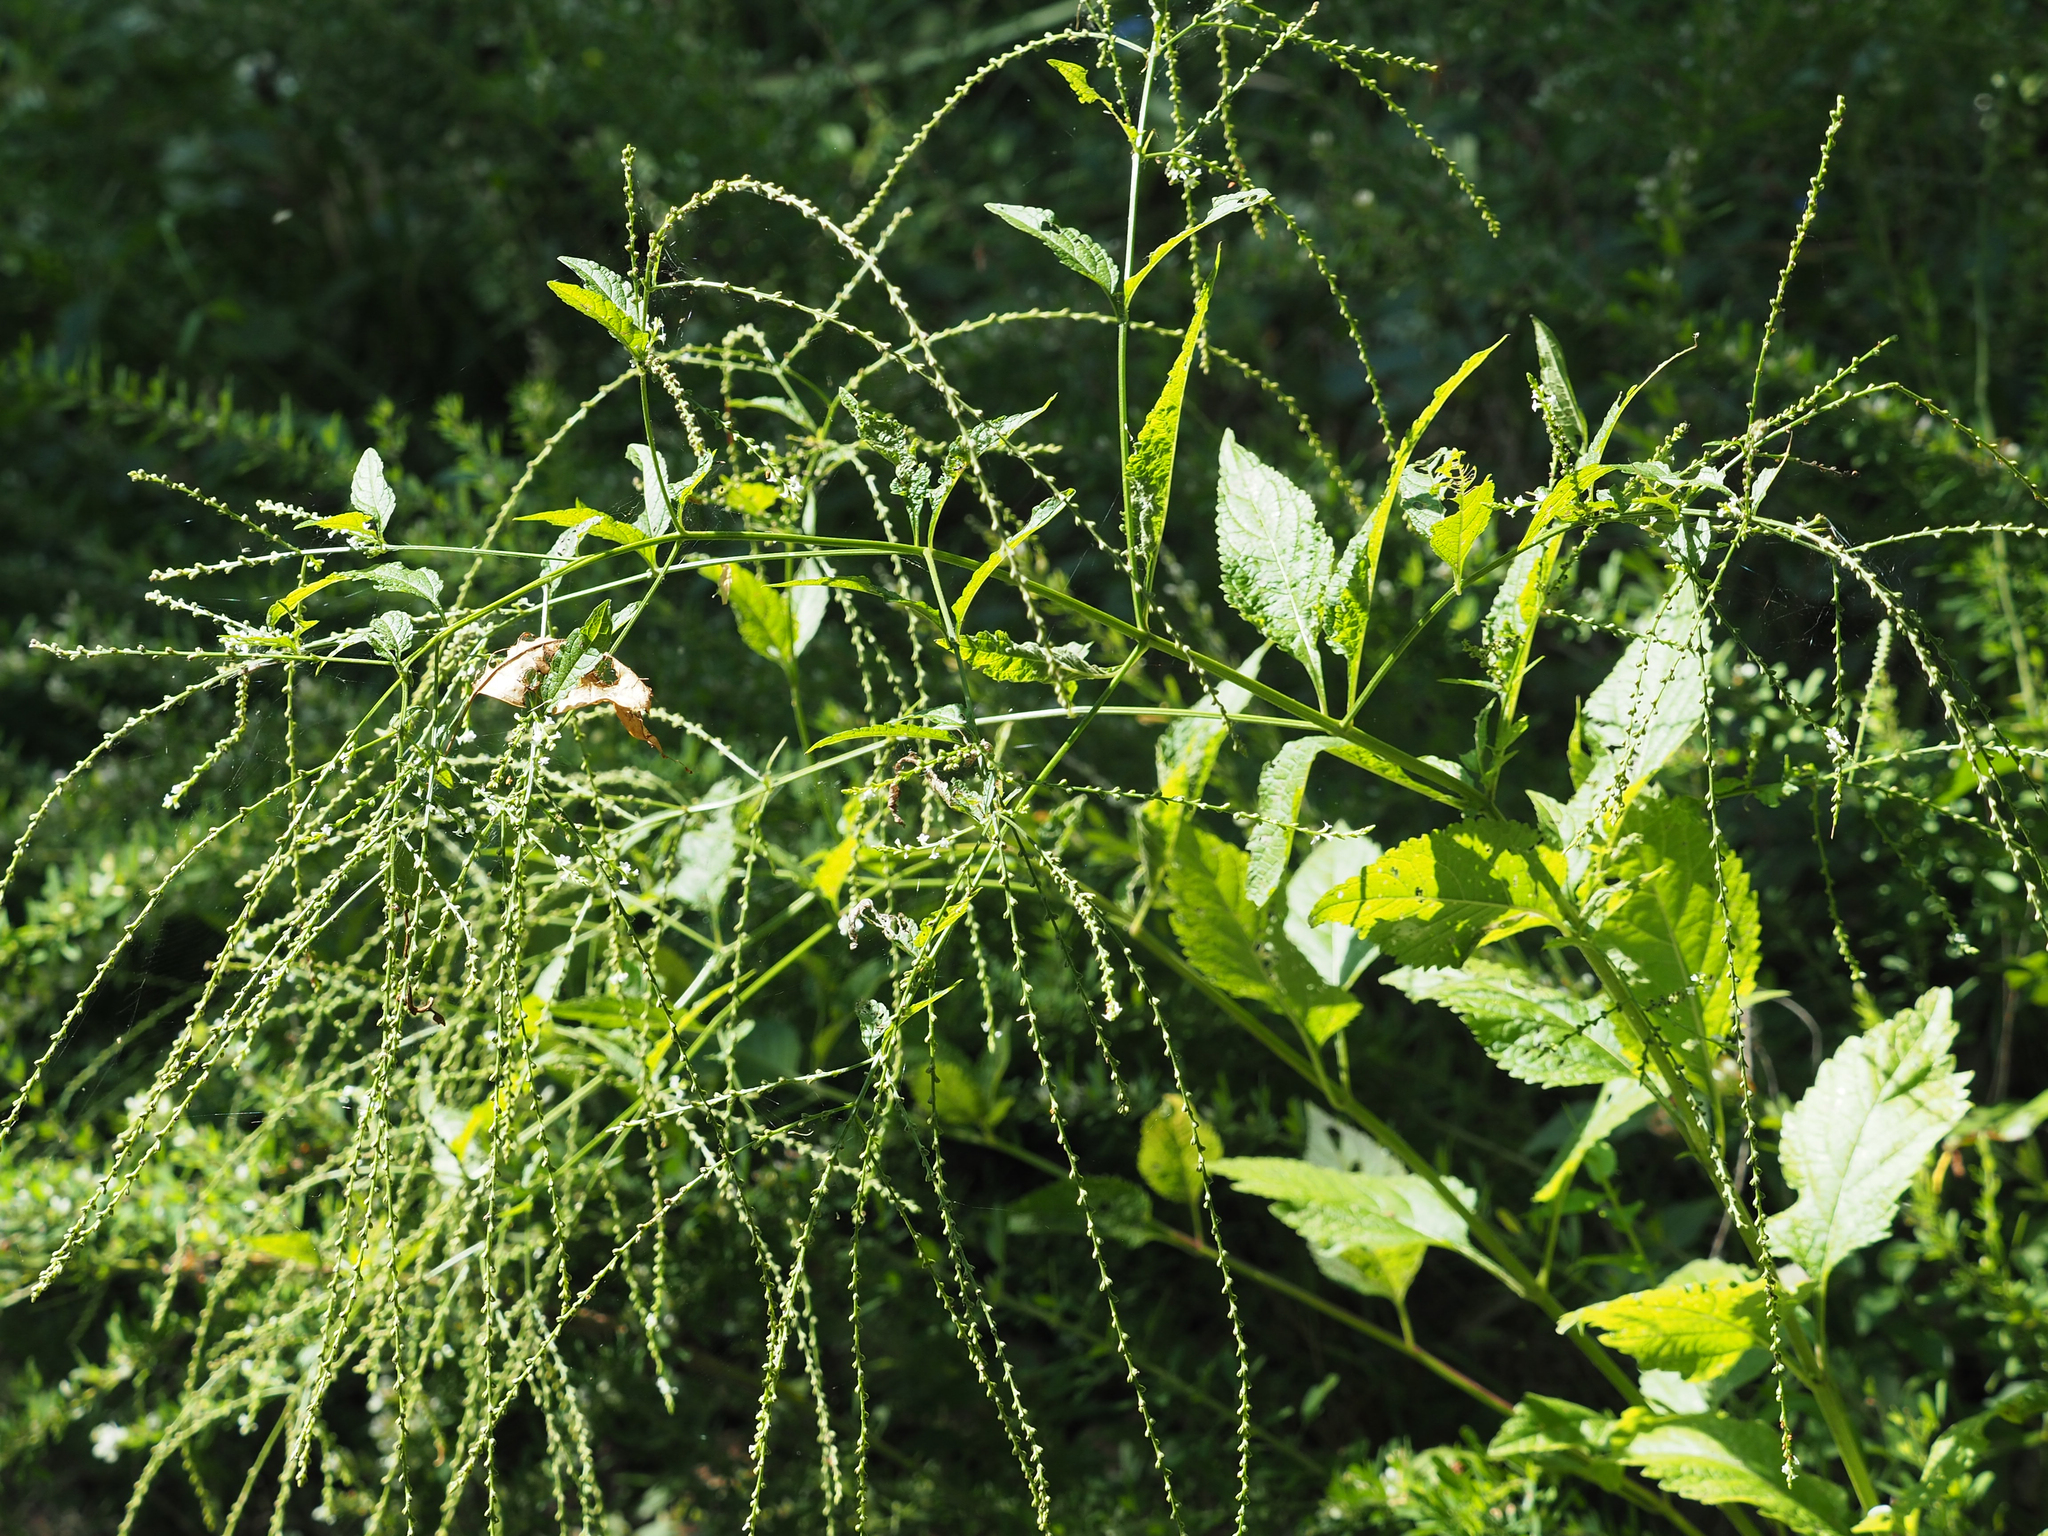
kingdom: Plantae
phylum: Tracheophyta
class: Magnoliopsida
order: Lamiales
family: Verbenaceae
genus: Verbena
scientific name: Verbena urticifolia
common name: Nettle-leaved vervain
